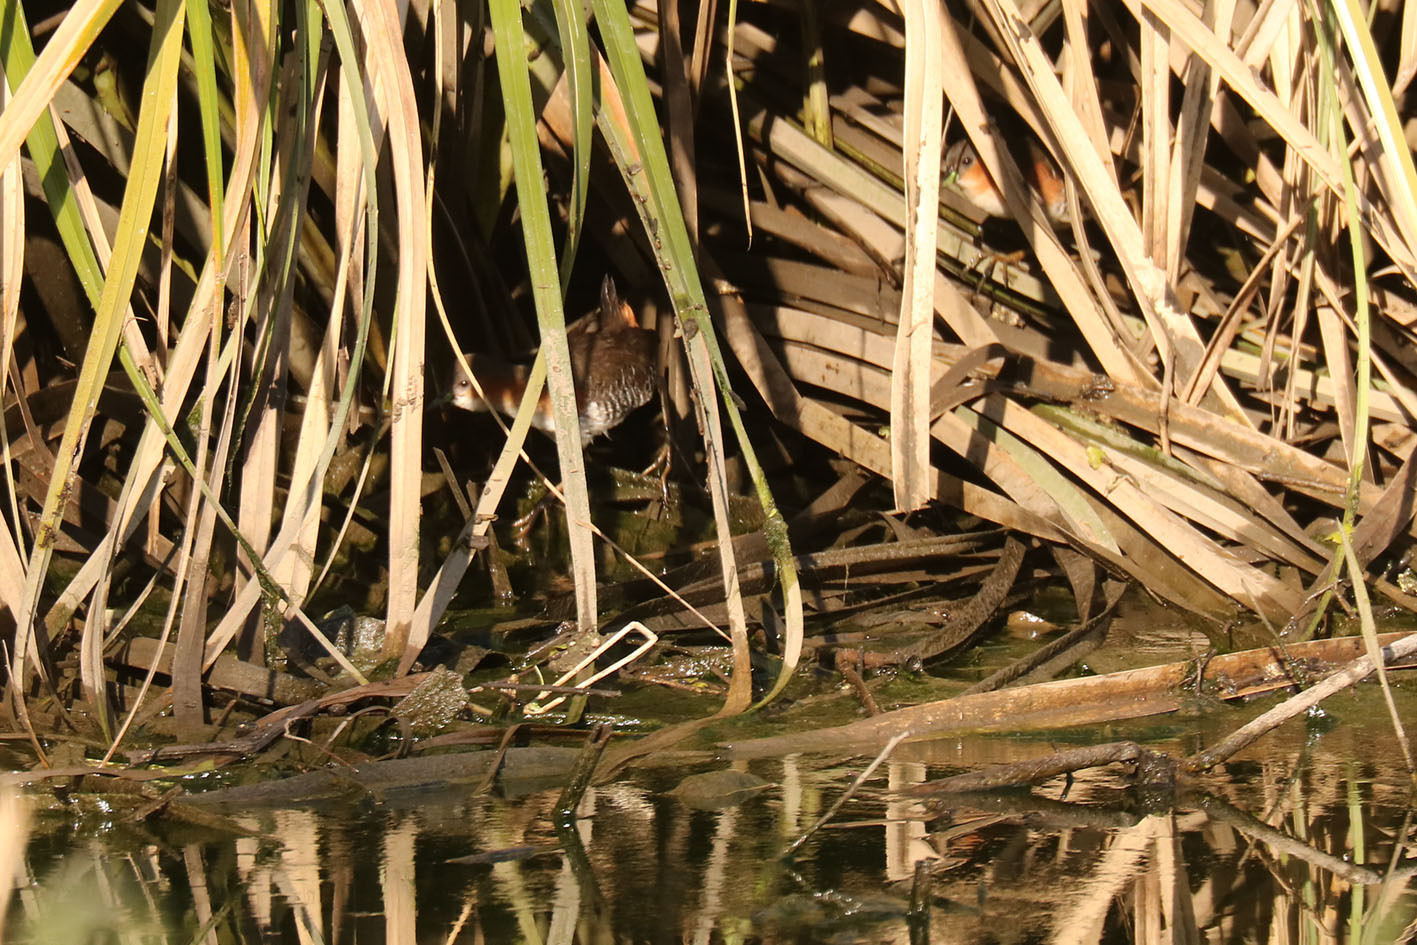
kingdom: Animalia
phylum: Chordata
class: Aves
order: Gruiformes
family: Rallidae
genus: Laterallus
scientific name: Laterallus melanophaius
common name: Rufous-sided crake
